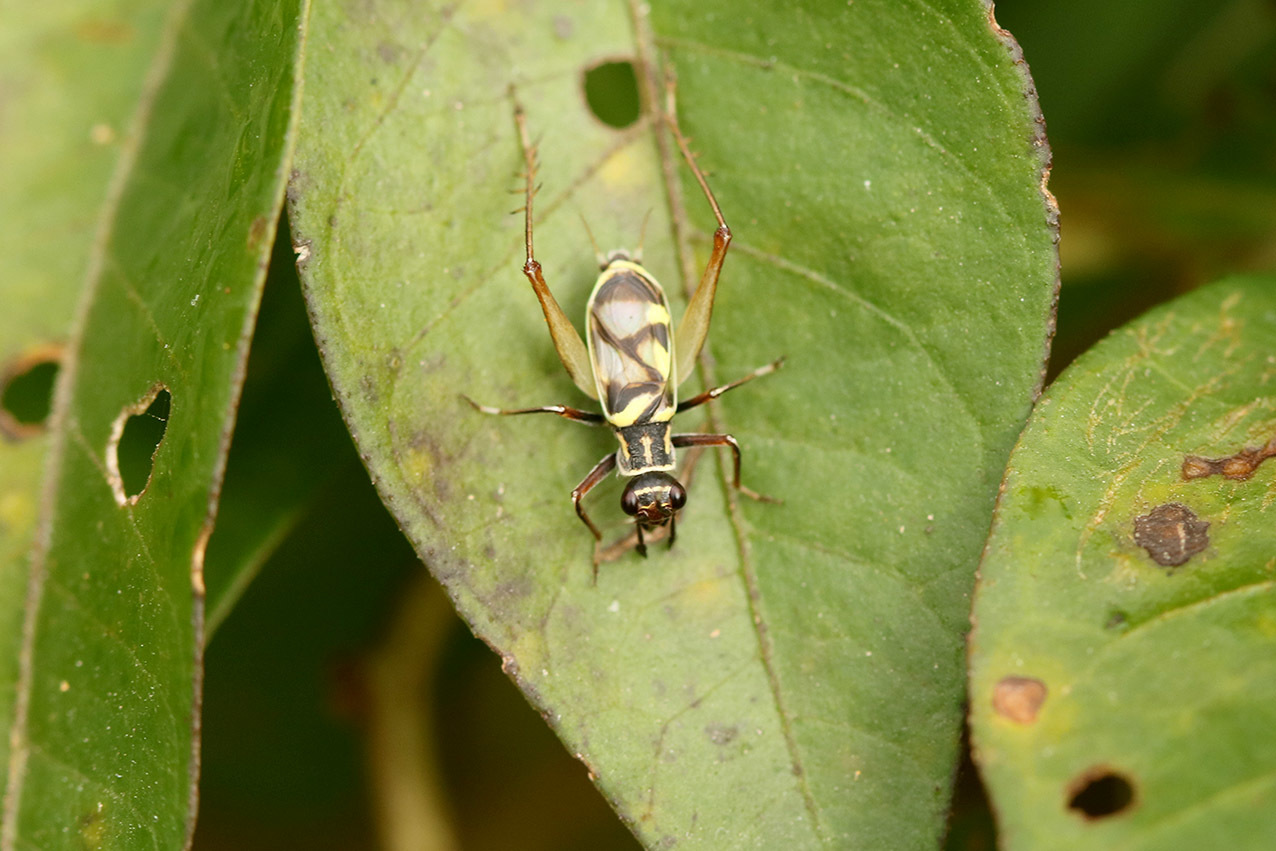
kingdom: Animalia
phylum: Arthropoda
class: Insecta
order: Orthoptera
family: Trigonidiidae
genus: Phylloscyrtus
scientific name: Phylloscyrtus amoenus
